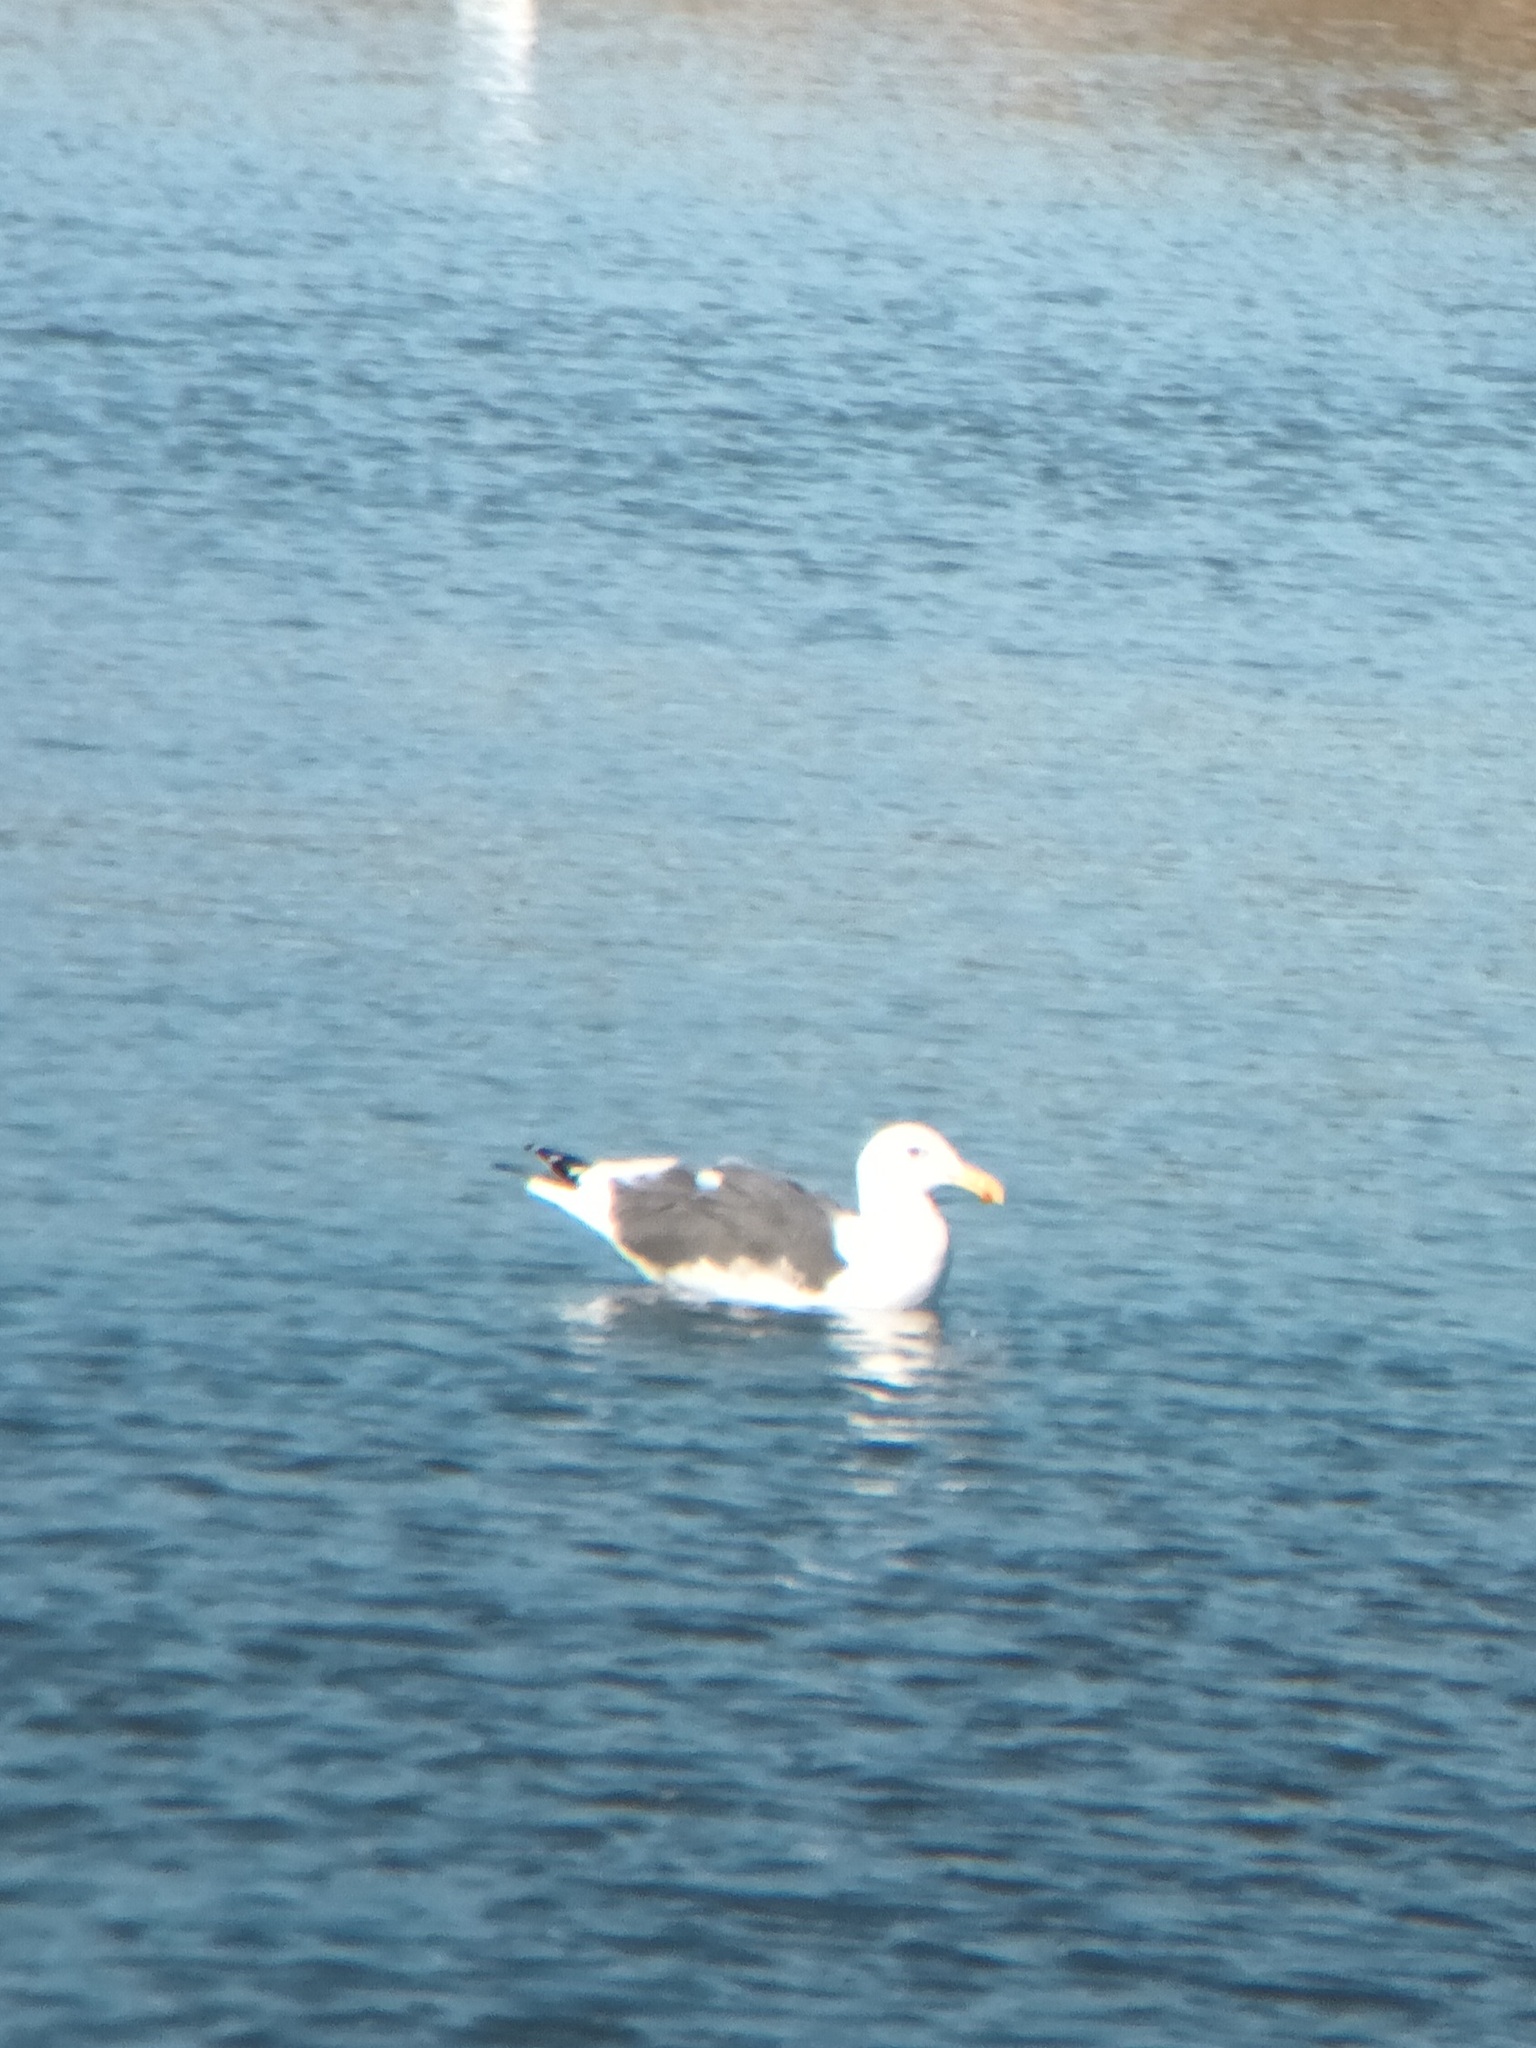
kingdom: Animalia
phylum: Chordata
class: Aves
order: Charadriiformes
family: Laridae
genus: Larus
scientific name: Larus occidentalis
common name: Western gull
